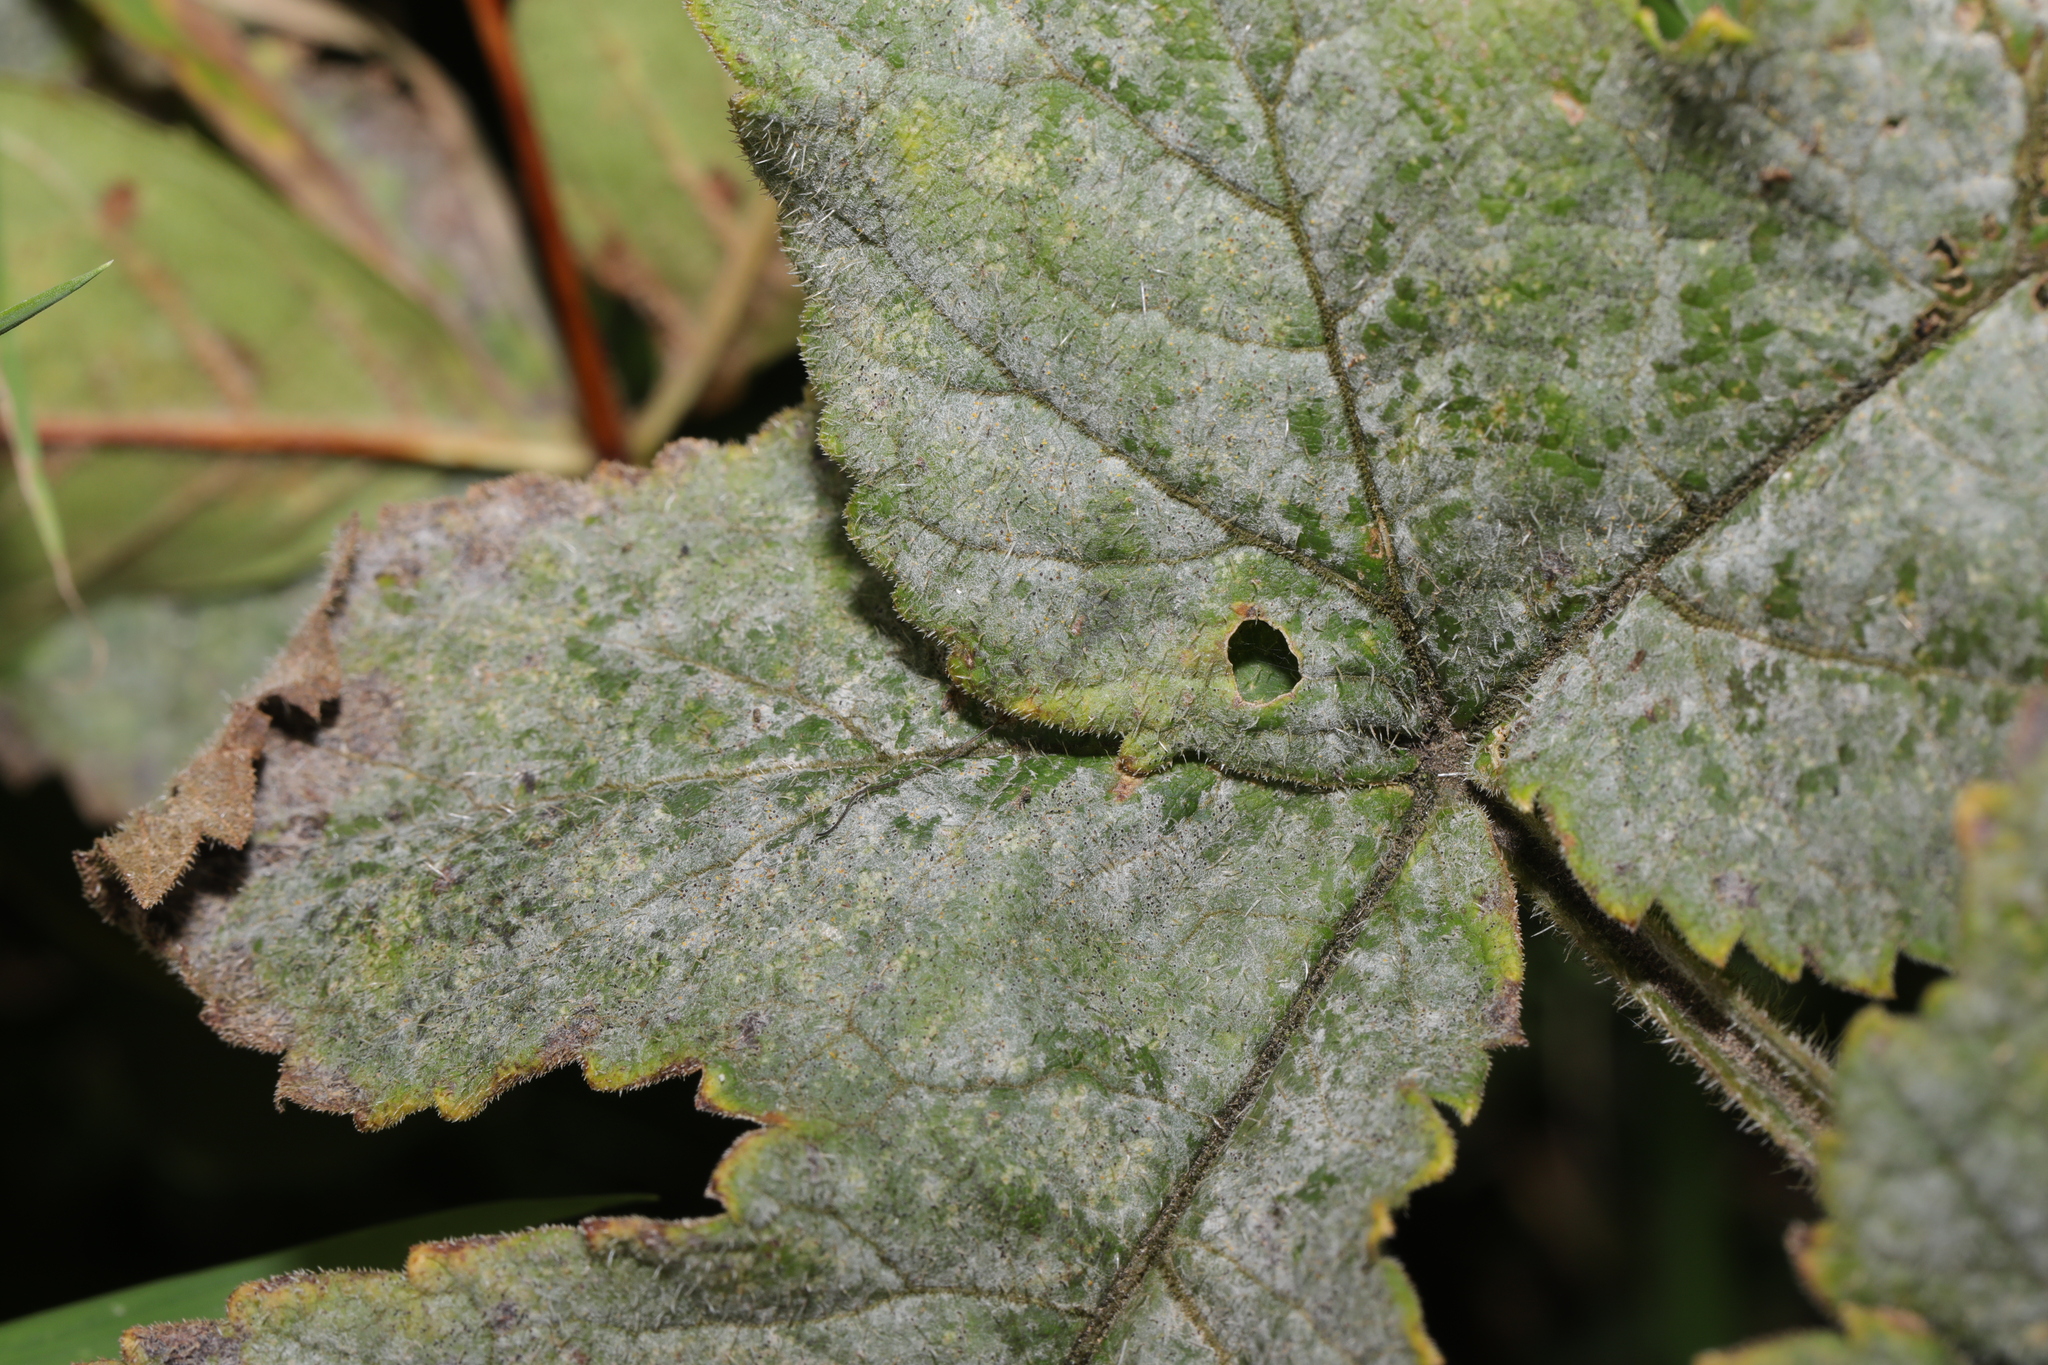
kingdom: Fungi
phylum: Ascomycota
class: Leotiomycetes
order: Helotiales
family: Erysiphaceae
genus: Erysiphe
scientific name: Erysiphe heraclei
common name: Umbellifer mildew
